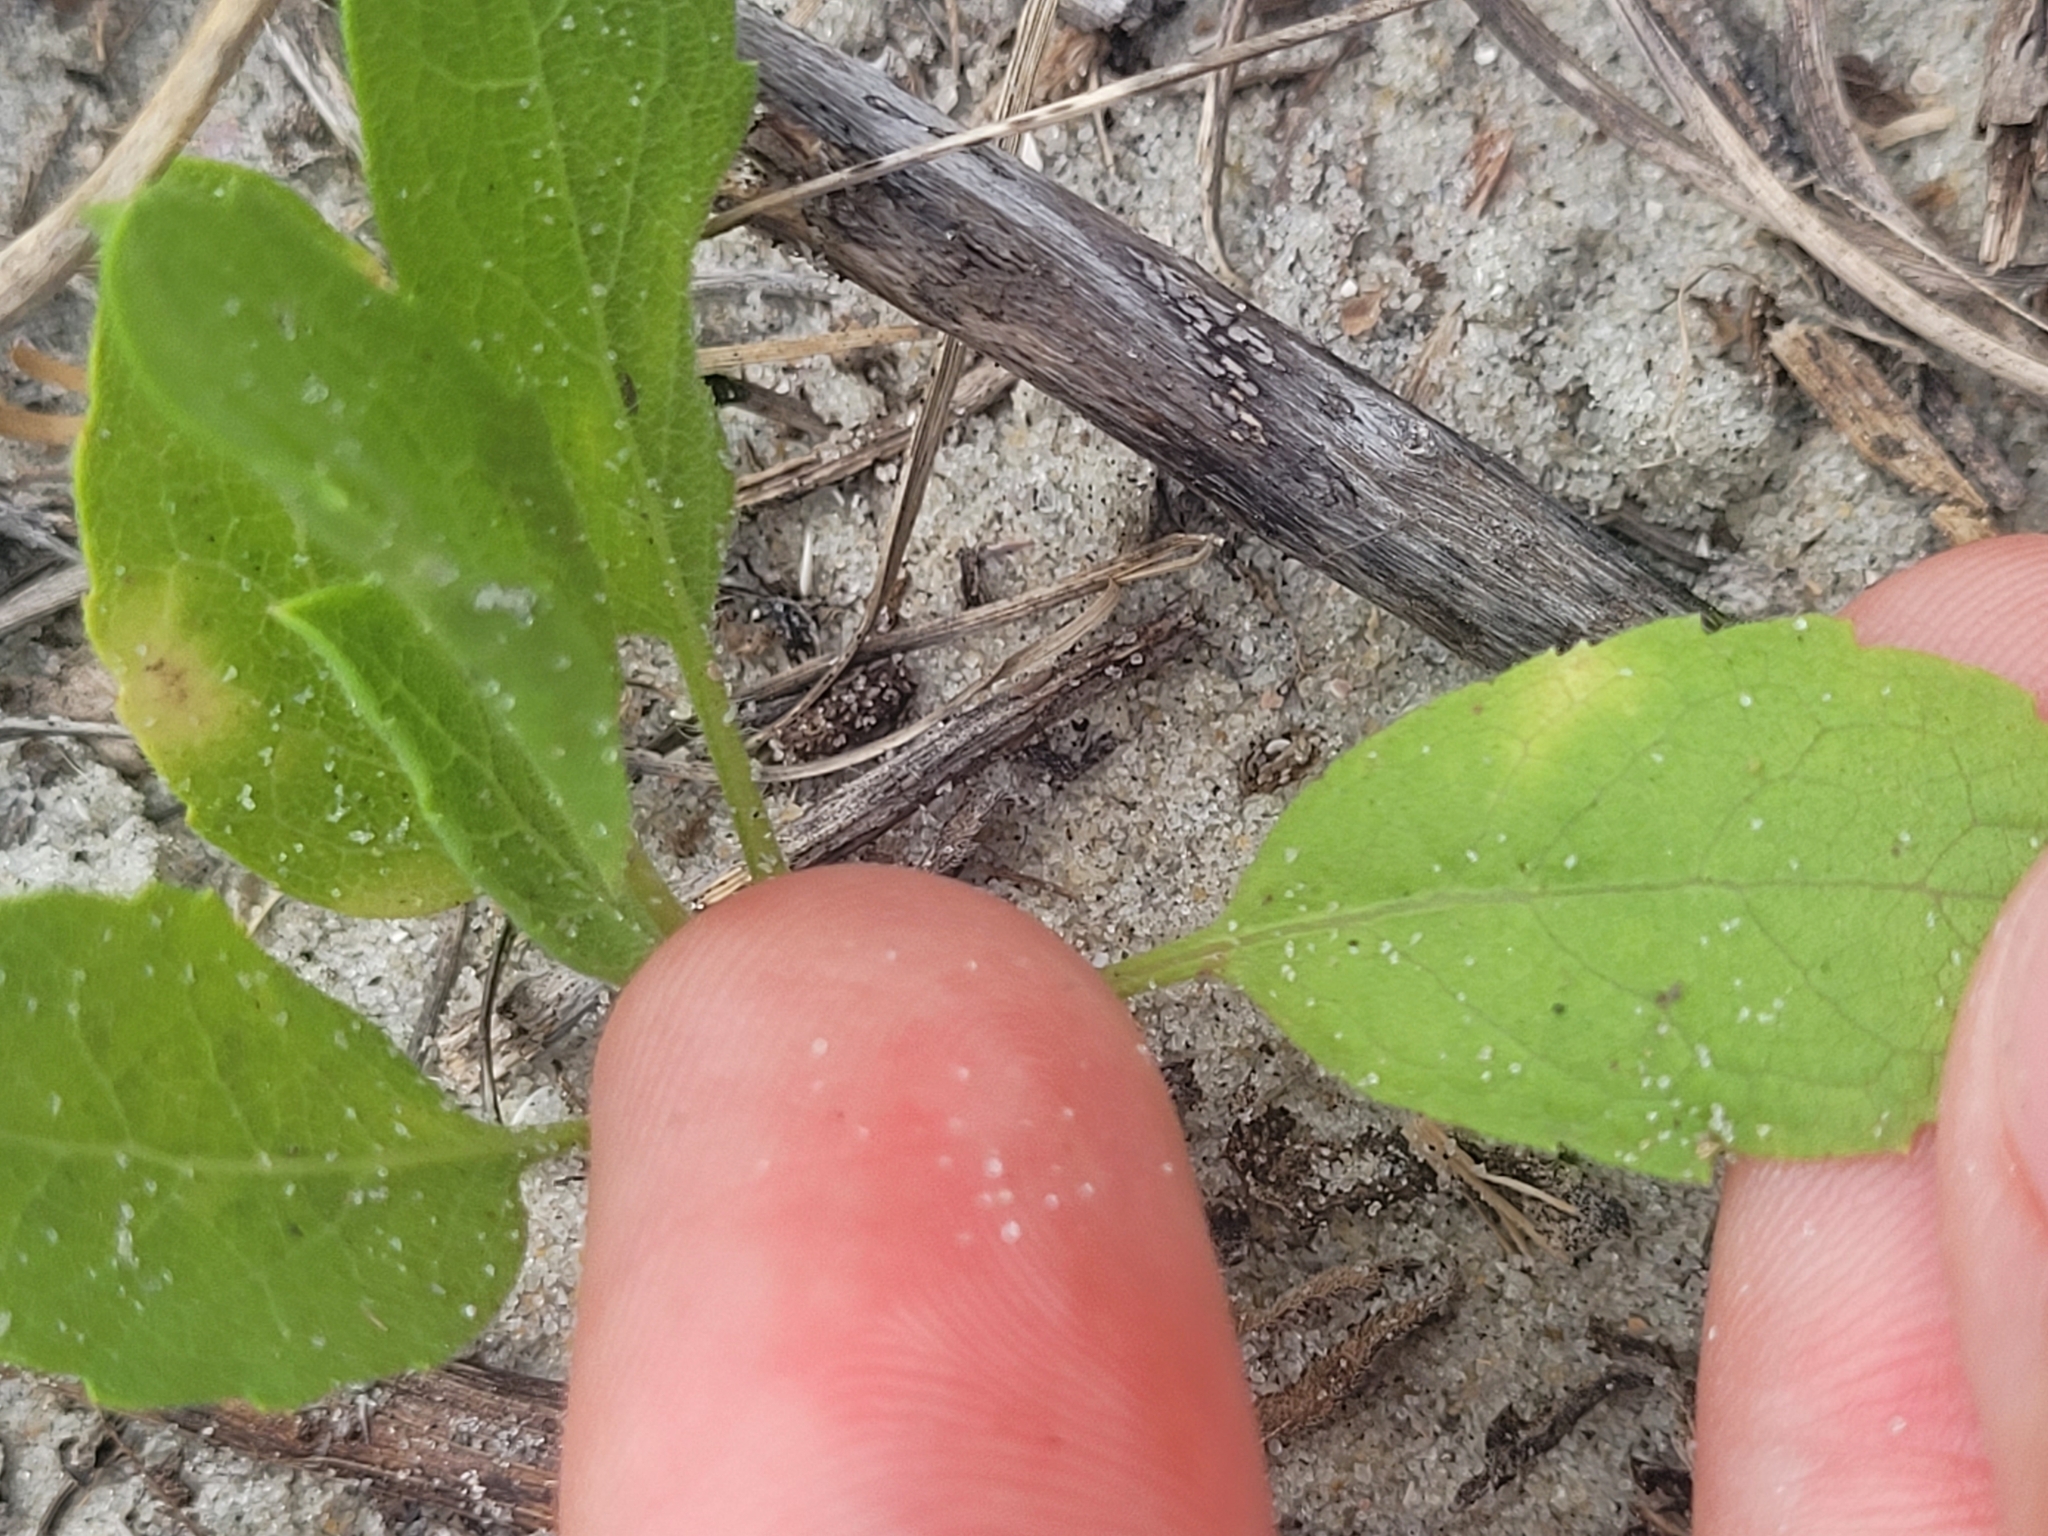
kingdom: Plantae
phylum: Tracheophyta
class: Magnoliopsida
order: Asterales
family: Asteraceae
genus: Heterotheca
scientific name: Heterotheca subaxillaris
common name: Camphorweed
